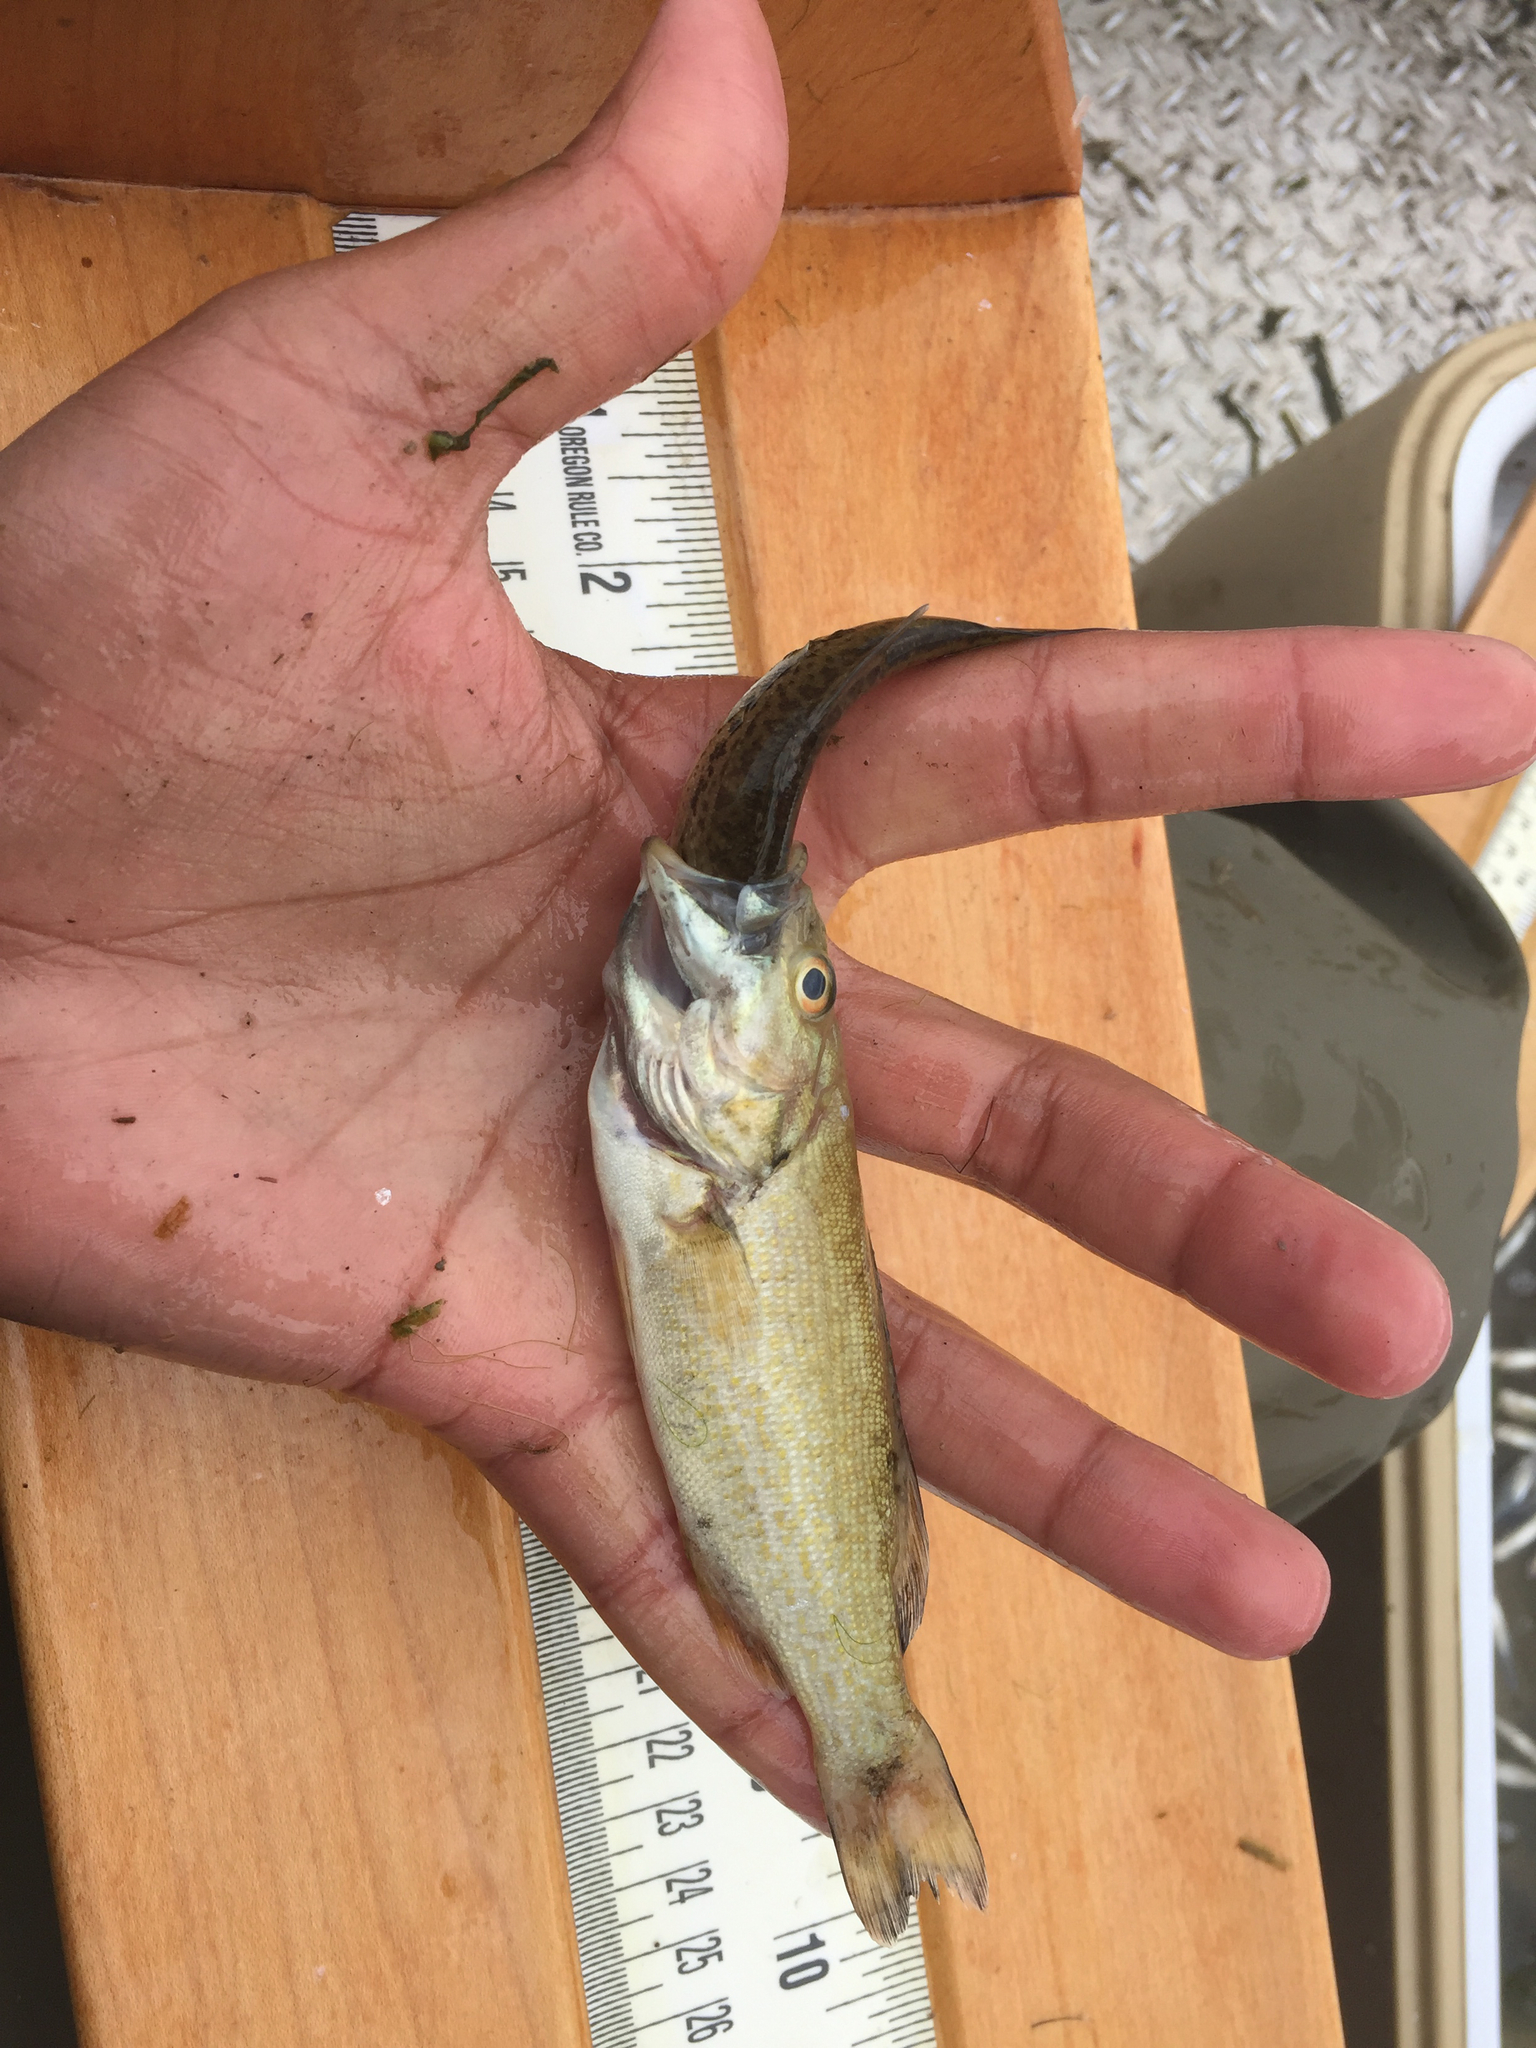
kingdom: Animalia
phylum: Chordata
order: Perciformes
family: Centrarchidae
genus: Micropterus
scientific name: Micropterus dolomieu
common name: Smallmouth bass
